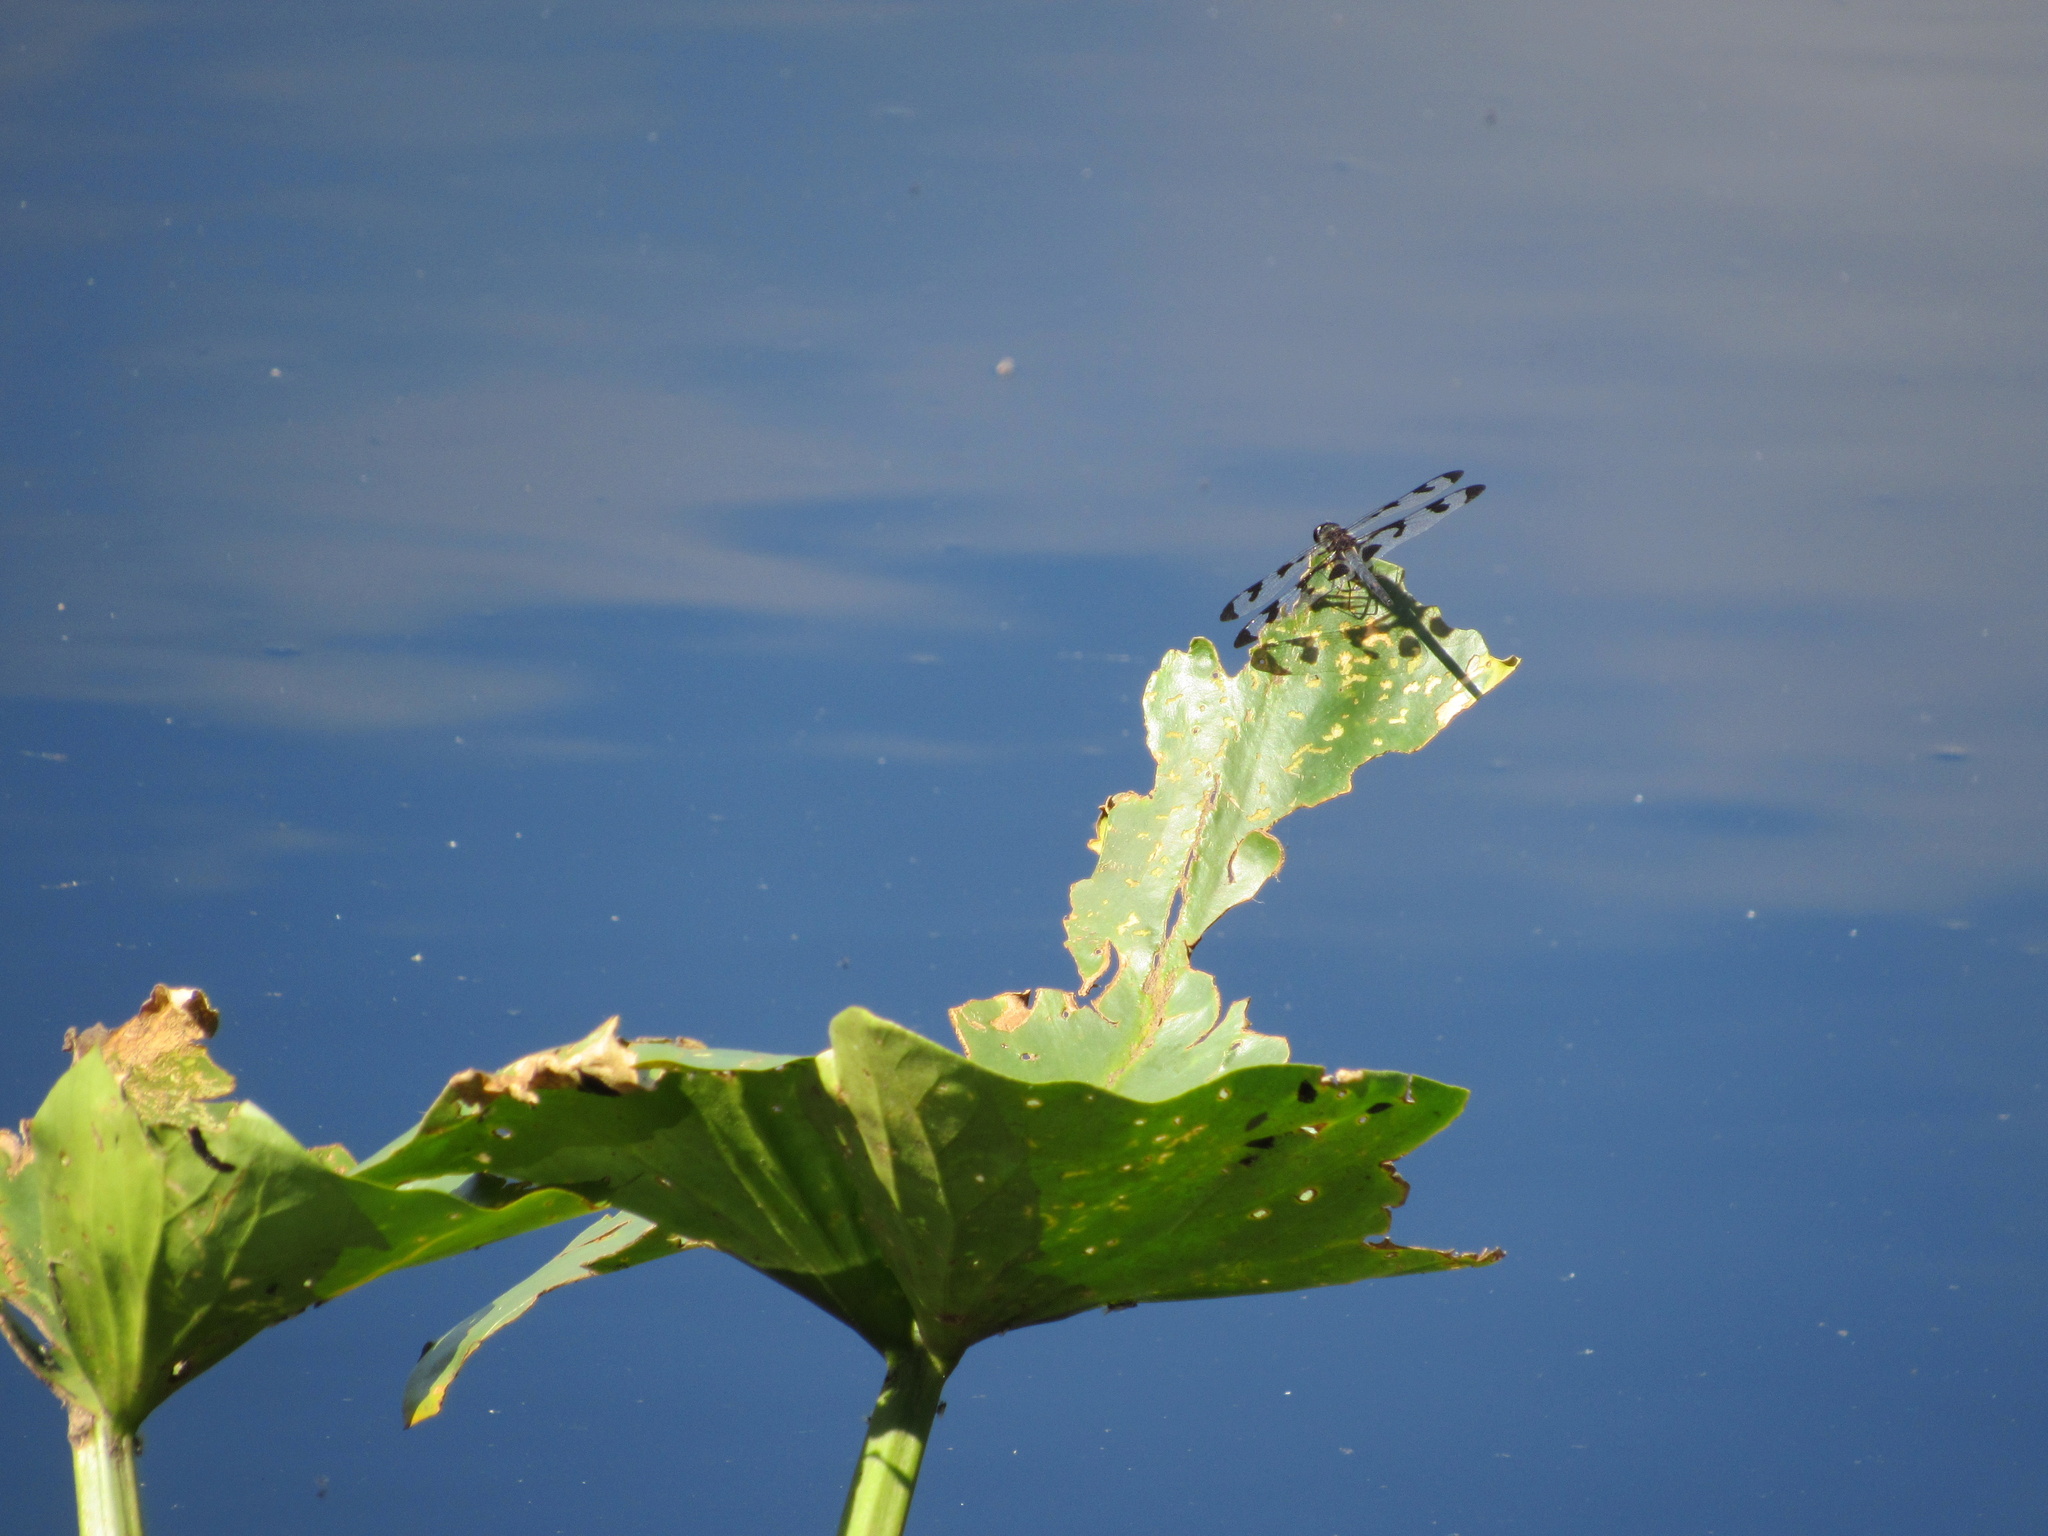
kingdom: Animalia
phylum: Arthropoda
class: Insecta
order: Odonata
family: Libellulidae
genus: Celithemis
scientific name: Celithemis fasciata
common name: Banded pennant
